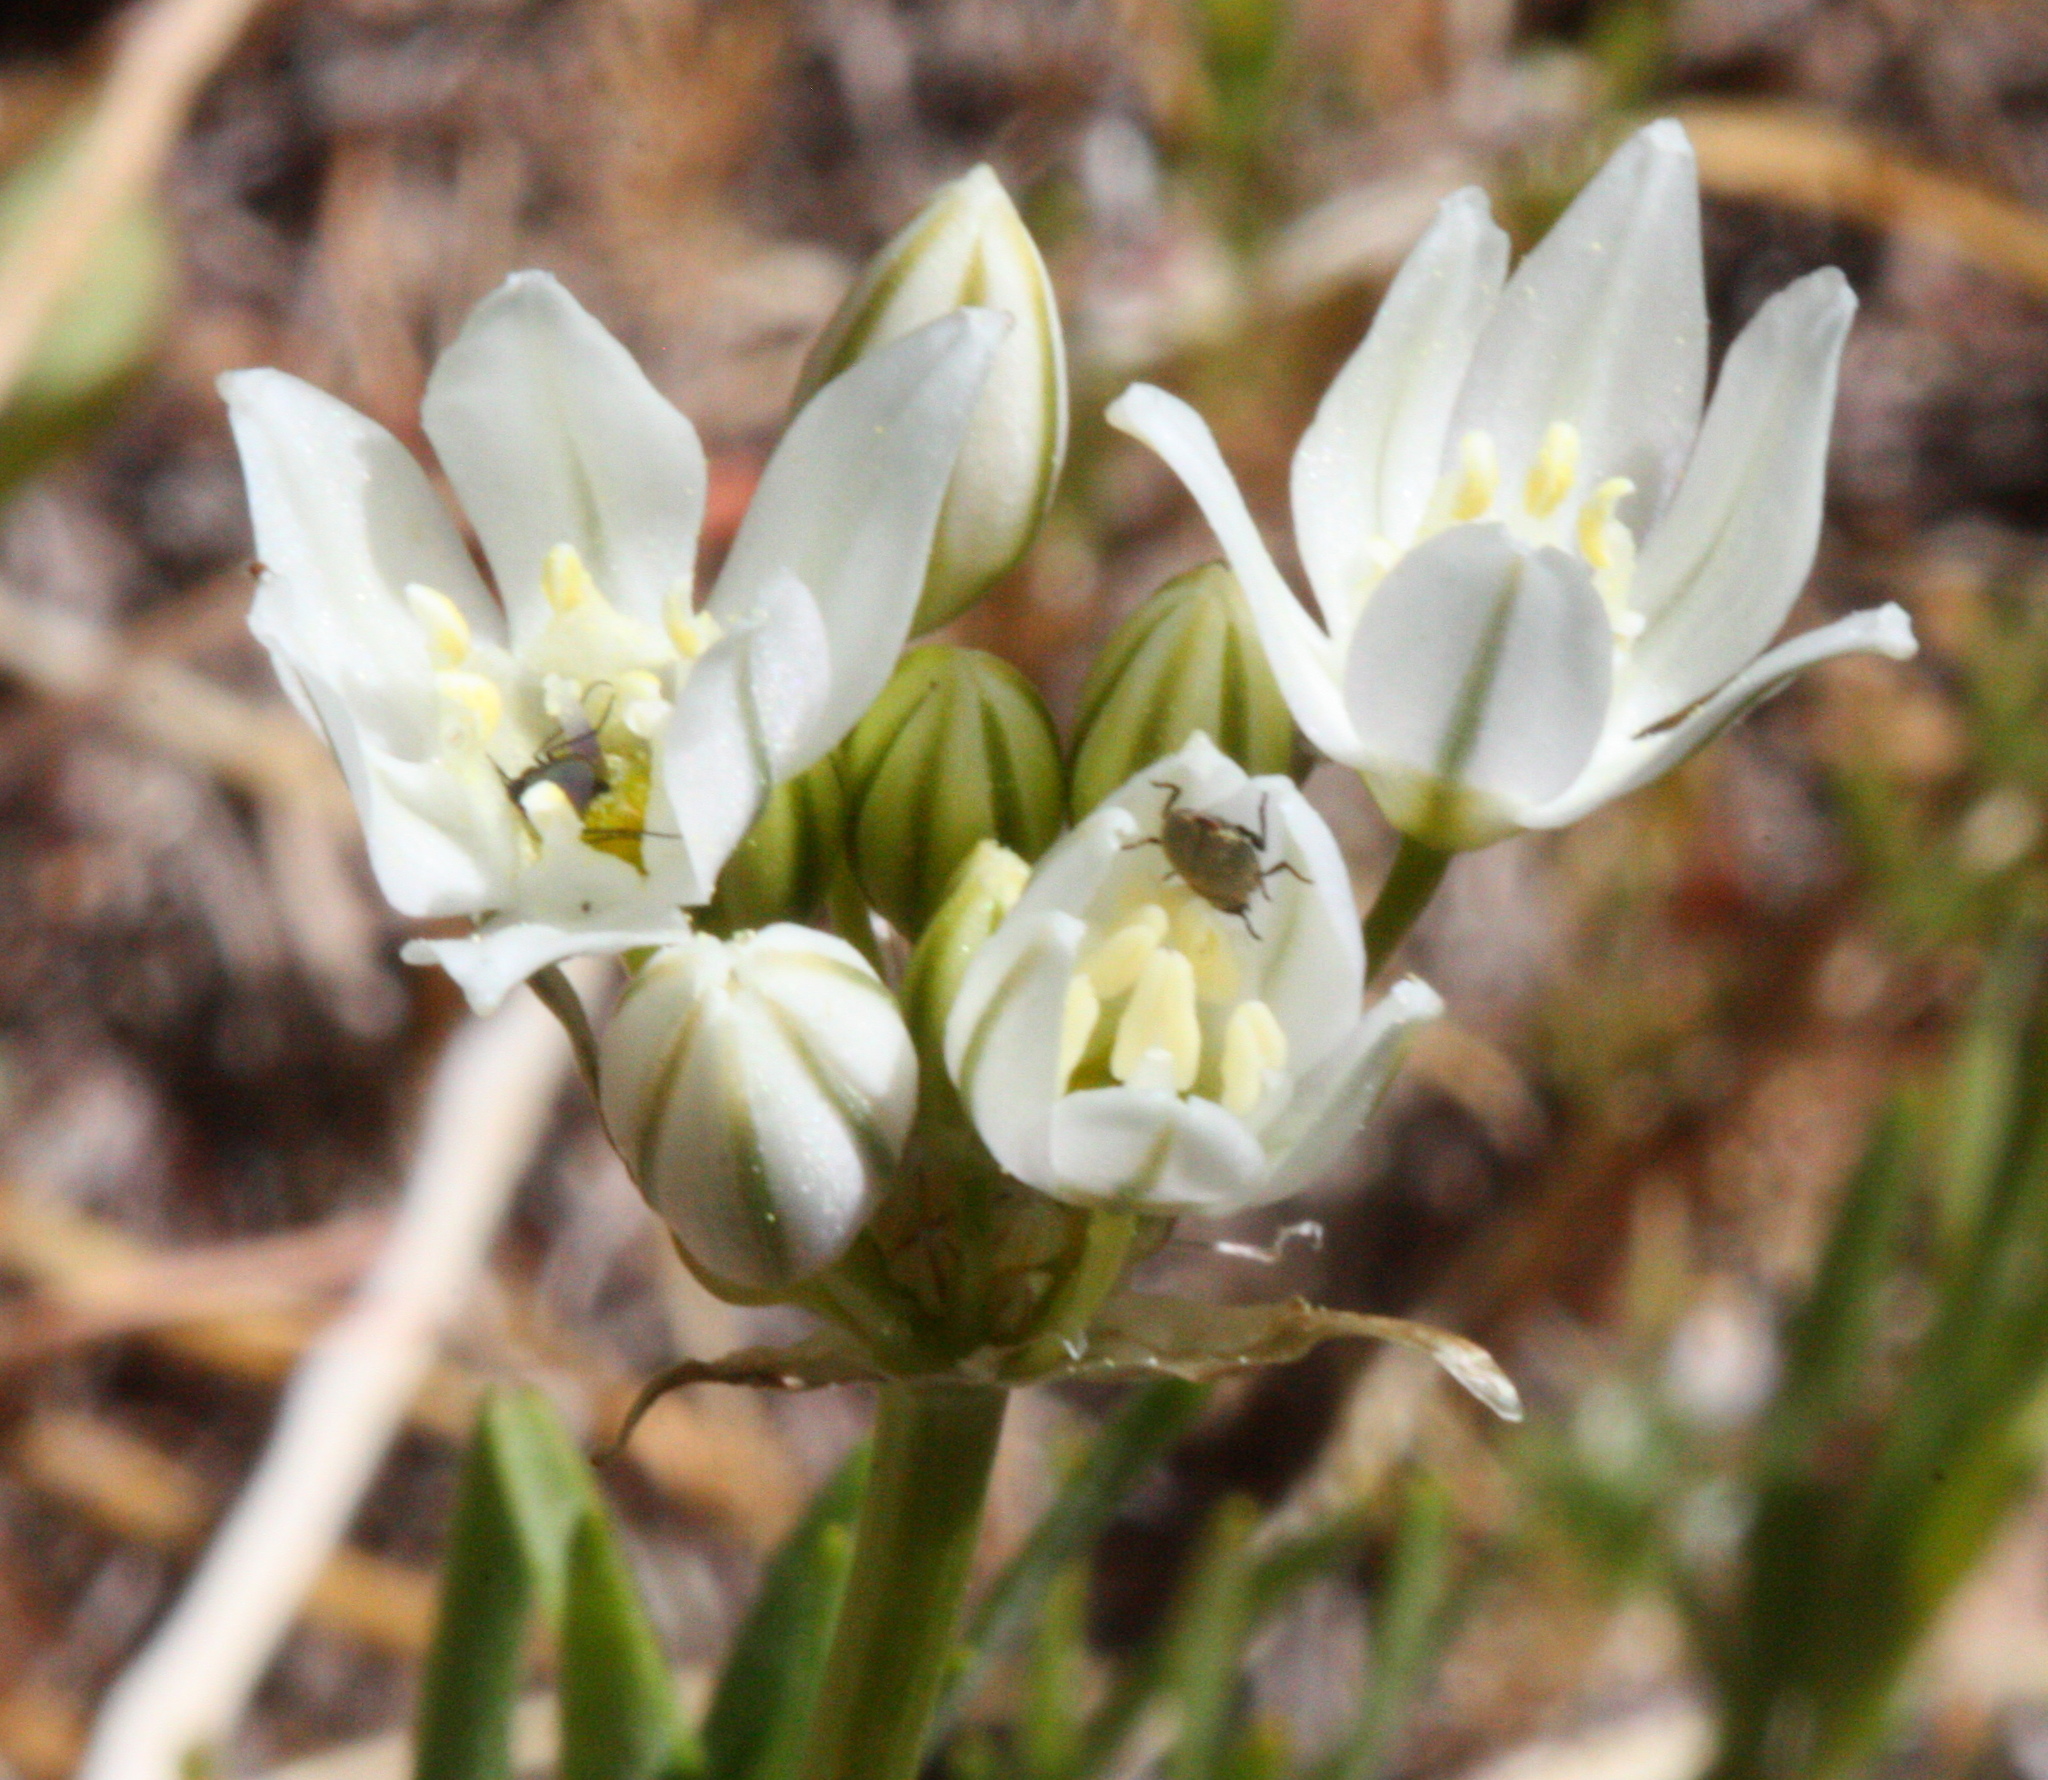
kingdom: Plantae
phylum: Tracheophyta
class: Liliopsida
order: Asparagales
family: Asparagaceae
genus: Triteleia
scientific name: Triteleia hyacinthina
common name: White brodiaea
